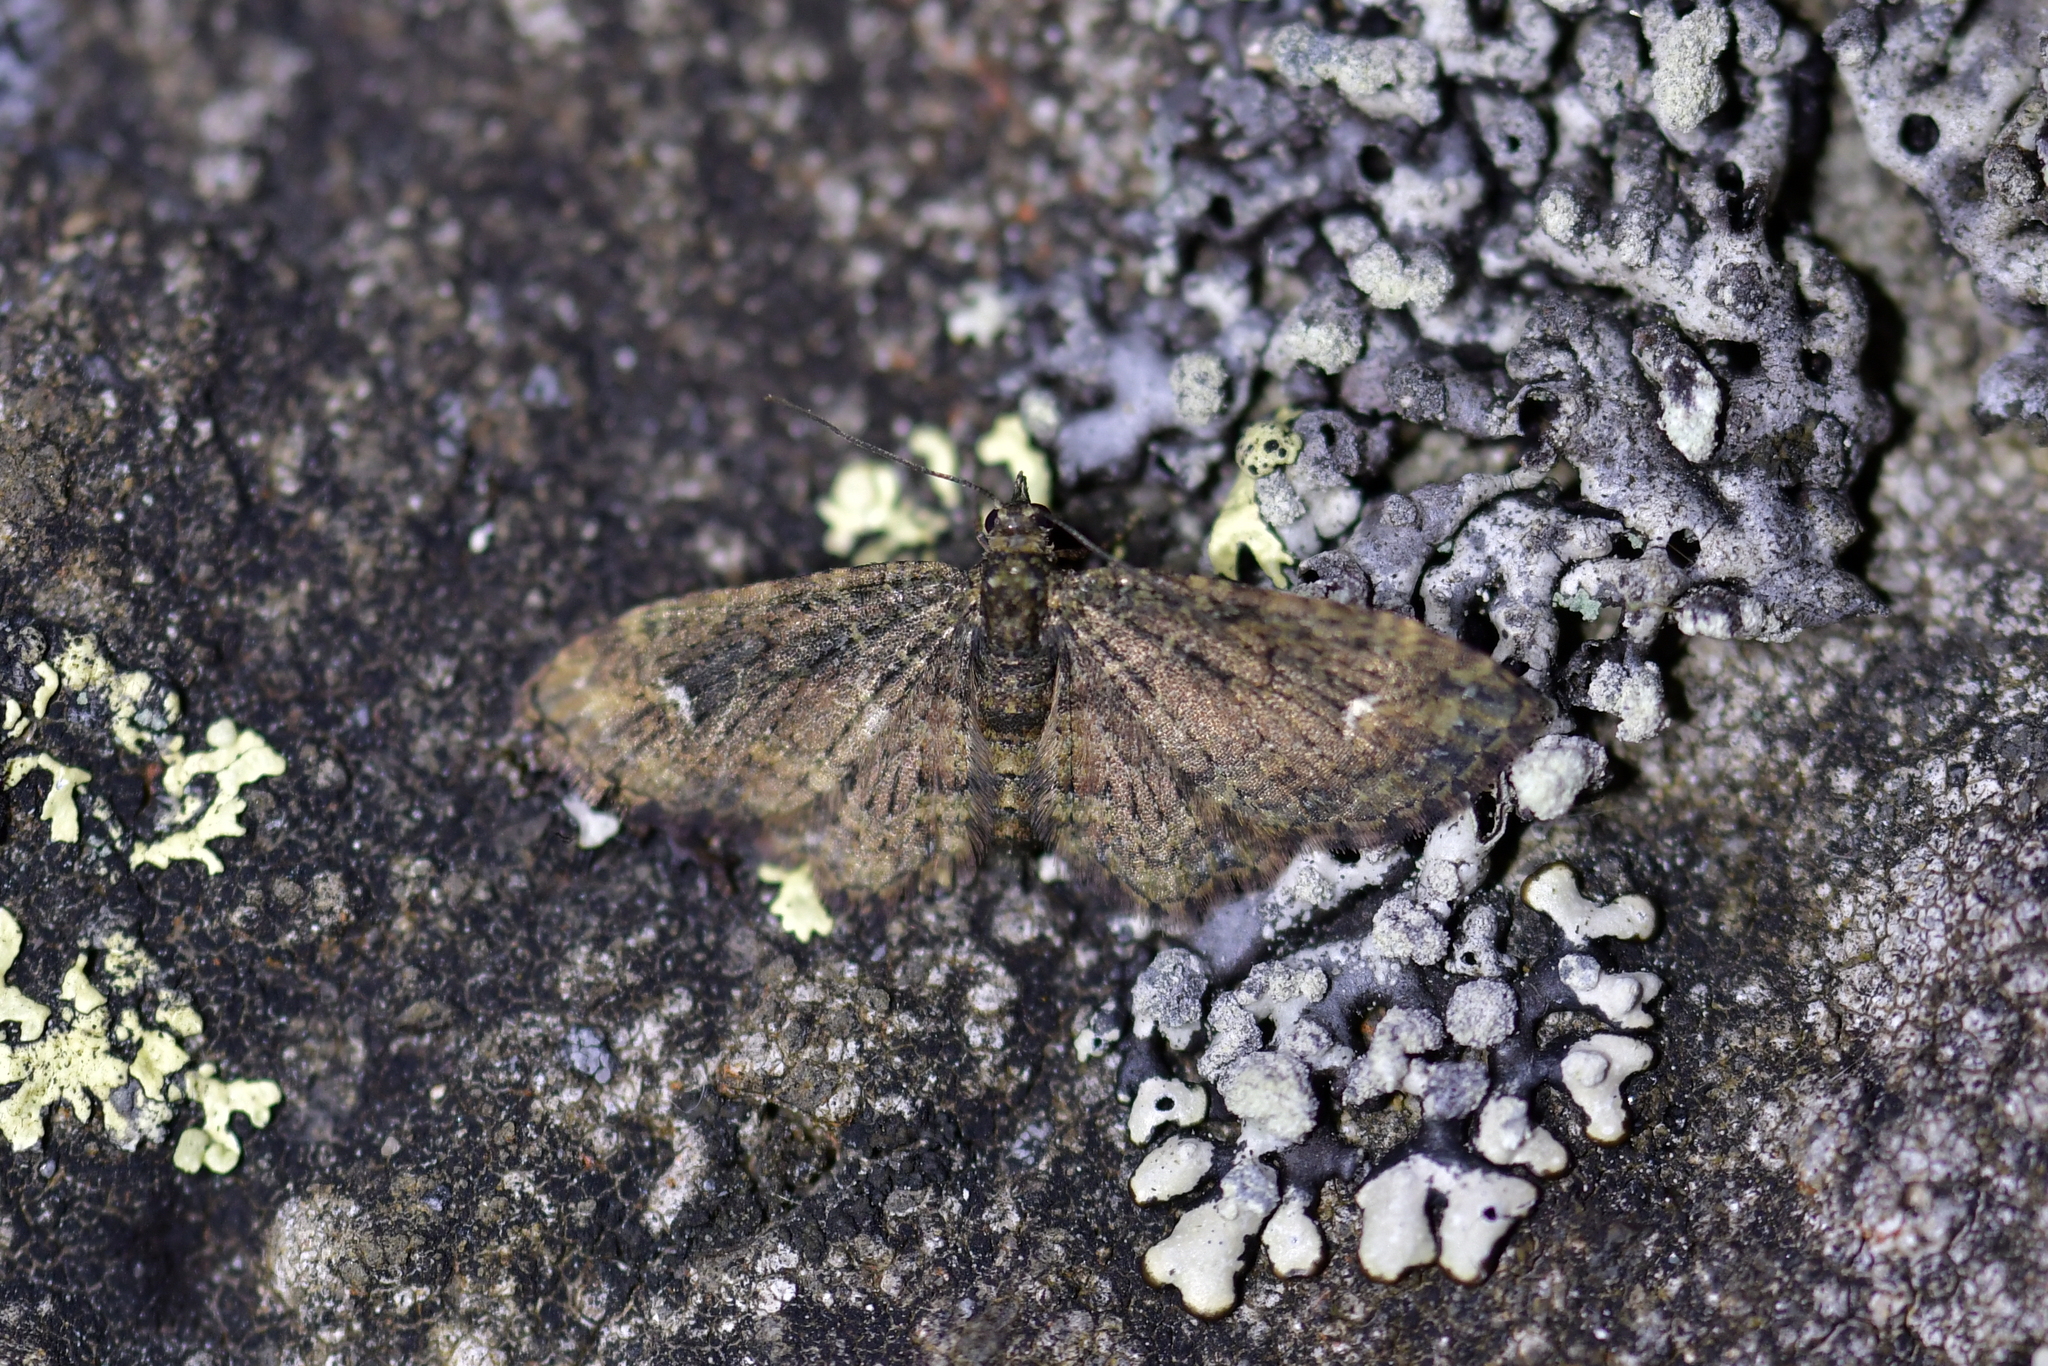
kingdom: Animalia
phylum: Arthropoda
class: Insecta
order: Lepidoptera
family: Geometridae
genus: Pasiphilodes
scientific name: Pasiphilodes testulata
